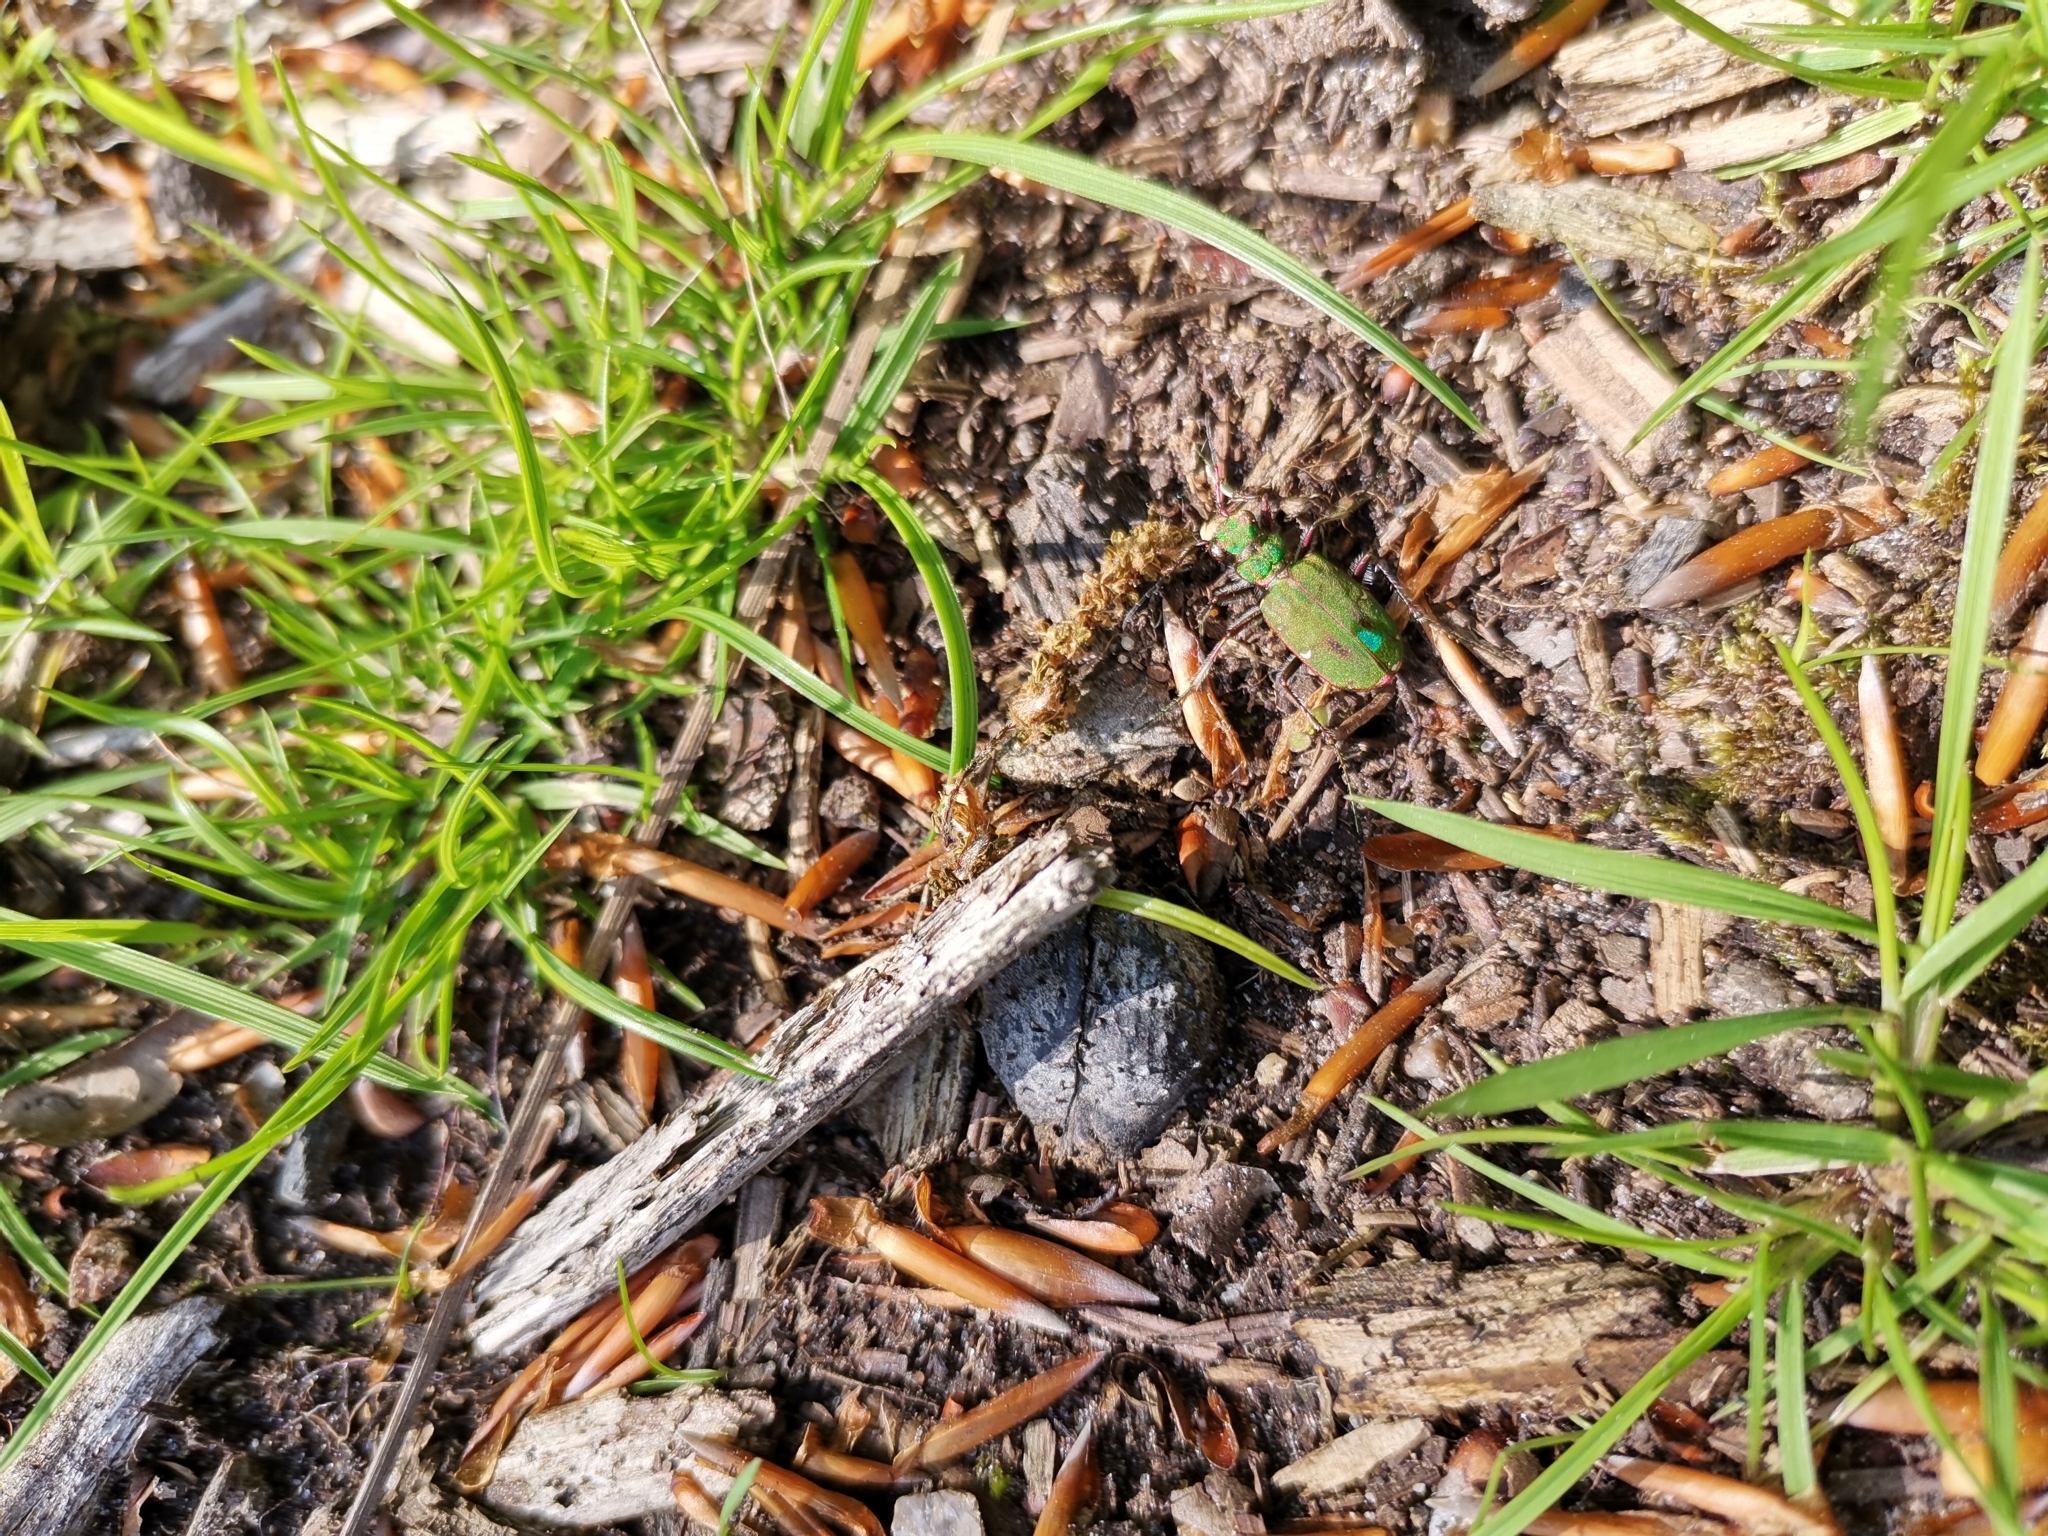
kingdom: Animalia
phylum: Arthropoda
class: Insecta
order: Coleoptera
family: Carabidae
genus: Cicindela
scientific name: Cicindela campestris
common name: Common tiger beetle
